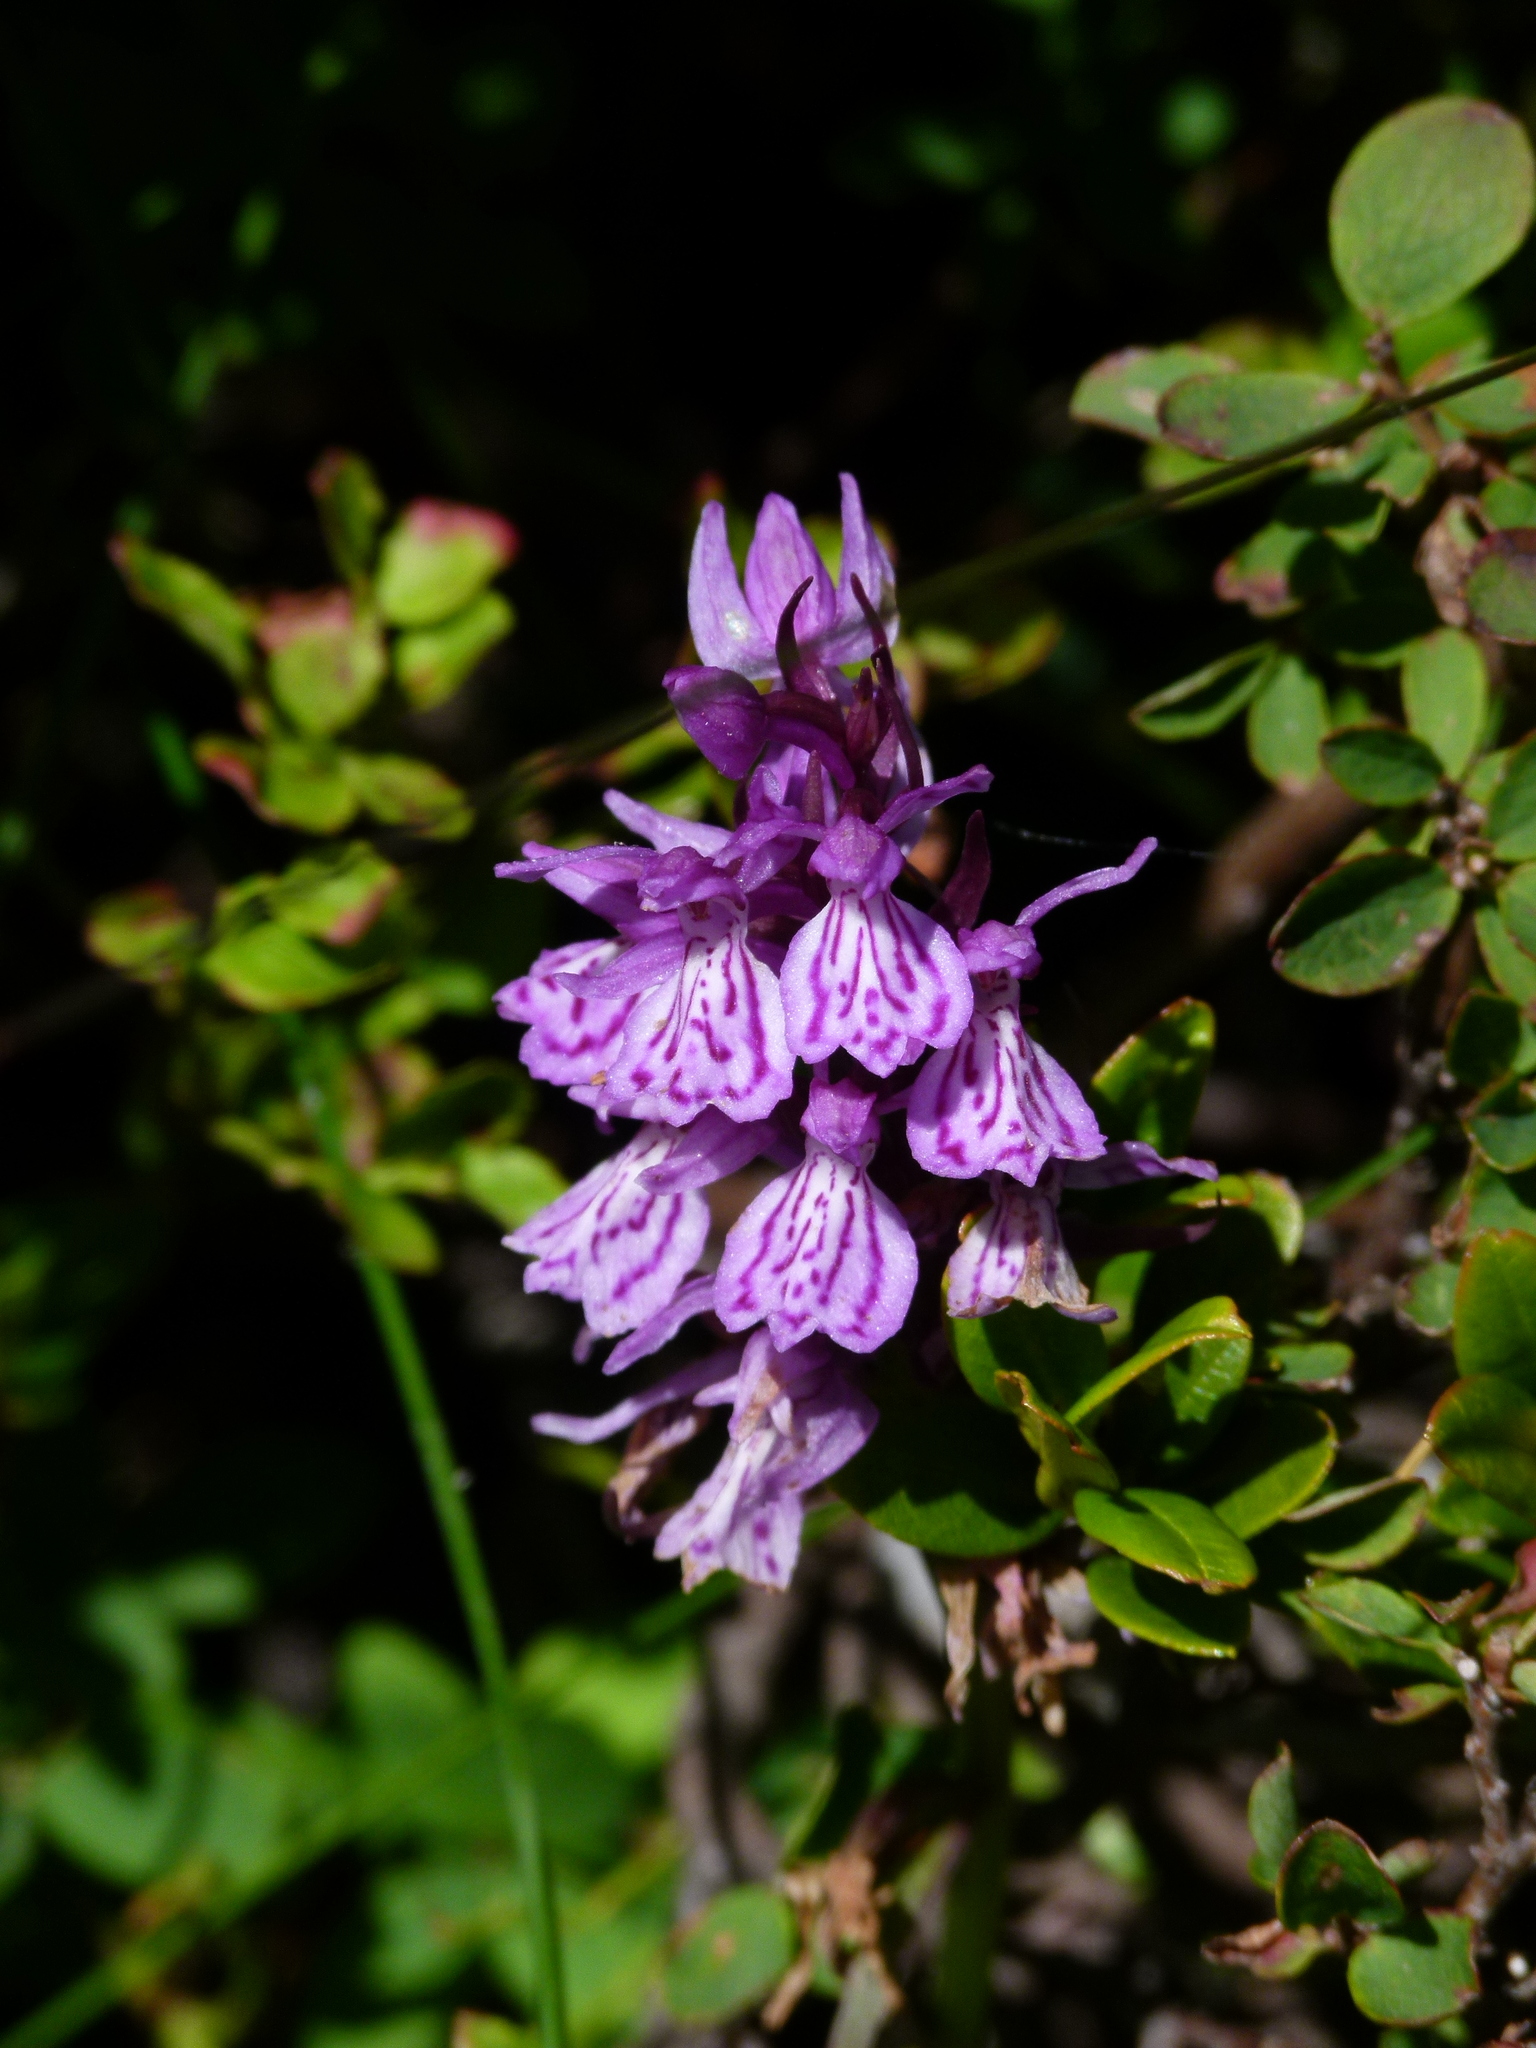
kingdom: Plantae
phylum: Tracheophyta
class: Liliopsida
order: Asparagales
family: Orchidaceae
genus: Dactylorhiza
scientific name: Dactylorhiza maculata
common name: Heath spotted-orchid
